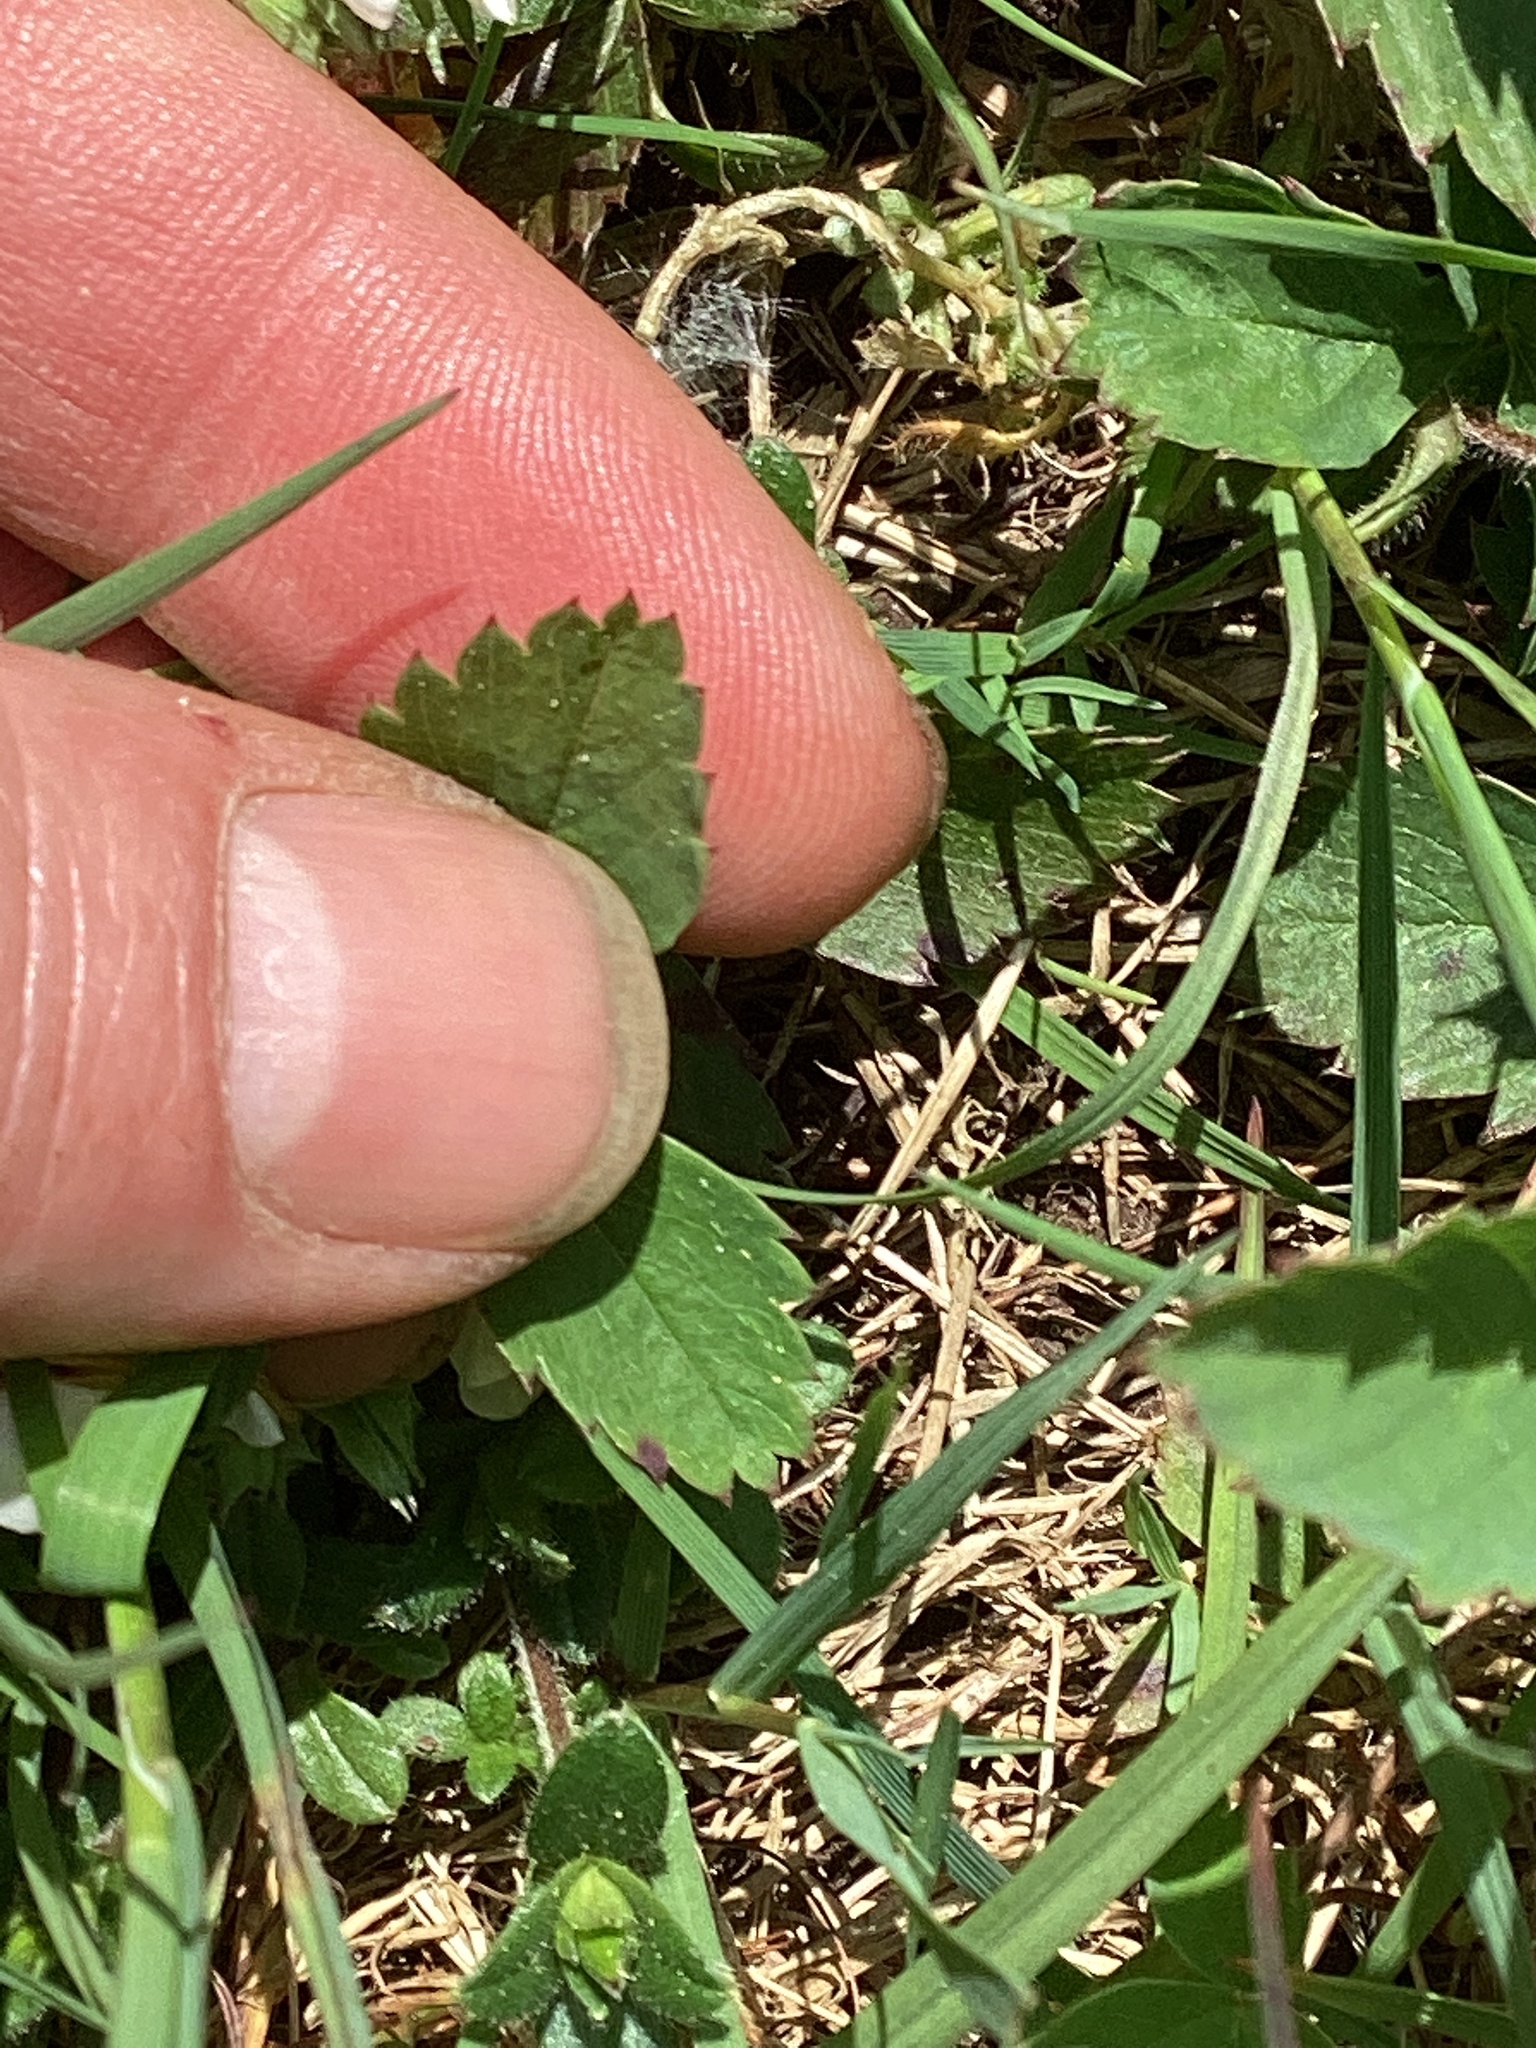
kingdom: Plantae
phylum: Tracheophyta
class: Magnoliopsida
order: Rosales
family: Rosaceae
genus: Fragaria
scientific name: Fragaria virginiana
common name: Thickleaved wild strawberry
